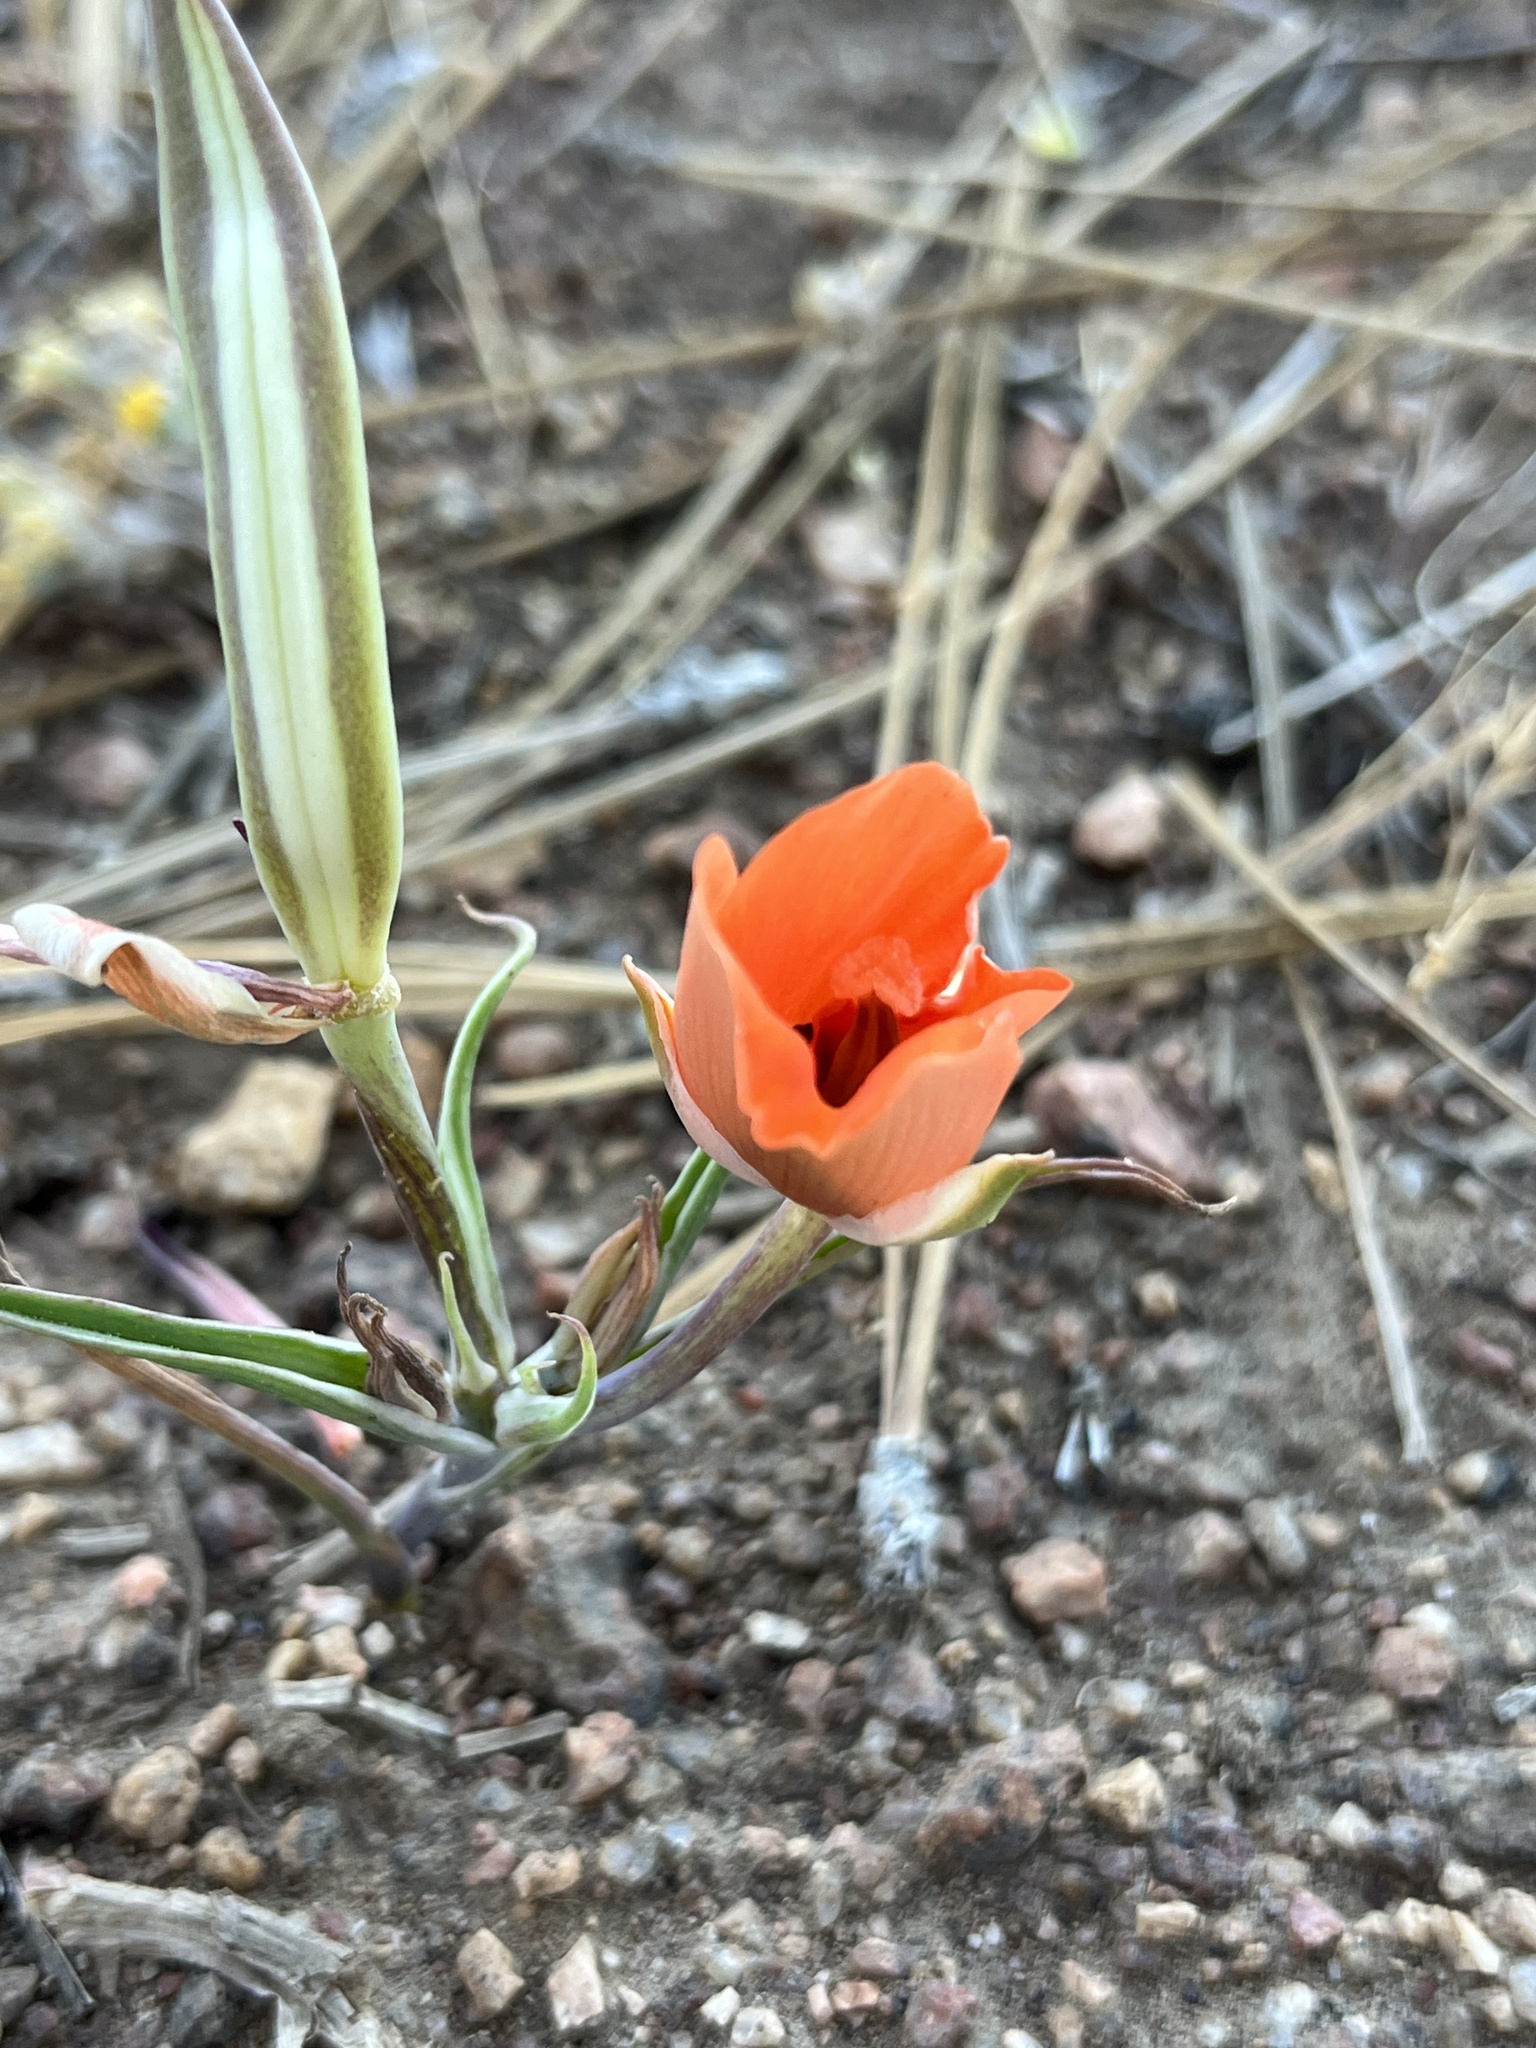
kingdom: Plantae
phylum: Tracheophyta
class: Liliopsida
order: Liliales
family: Liliaceae
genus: Calochortus
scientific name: Calochortus kennedyi
